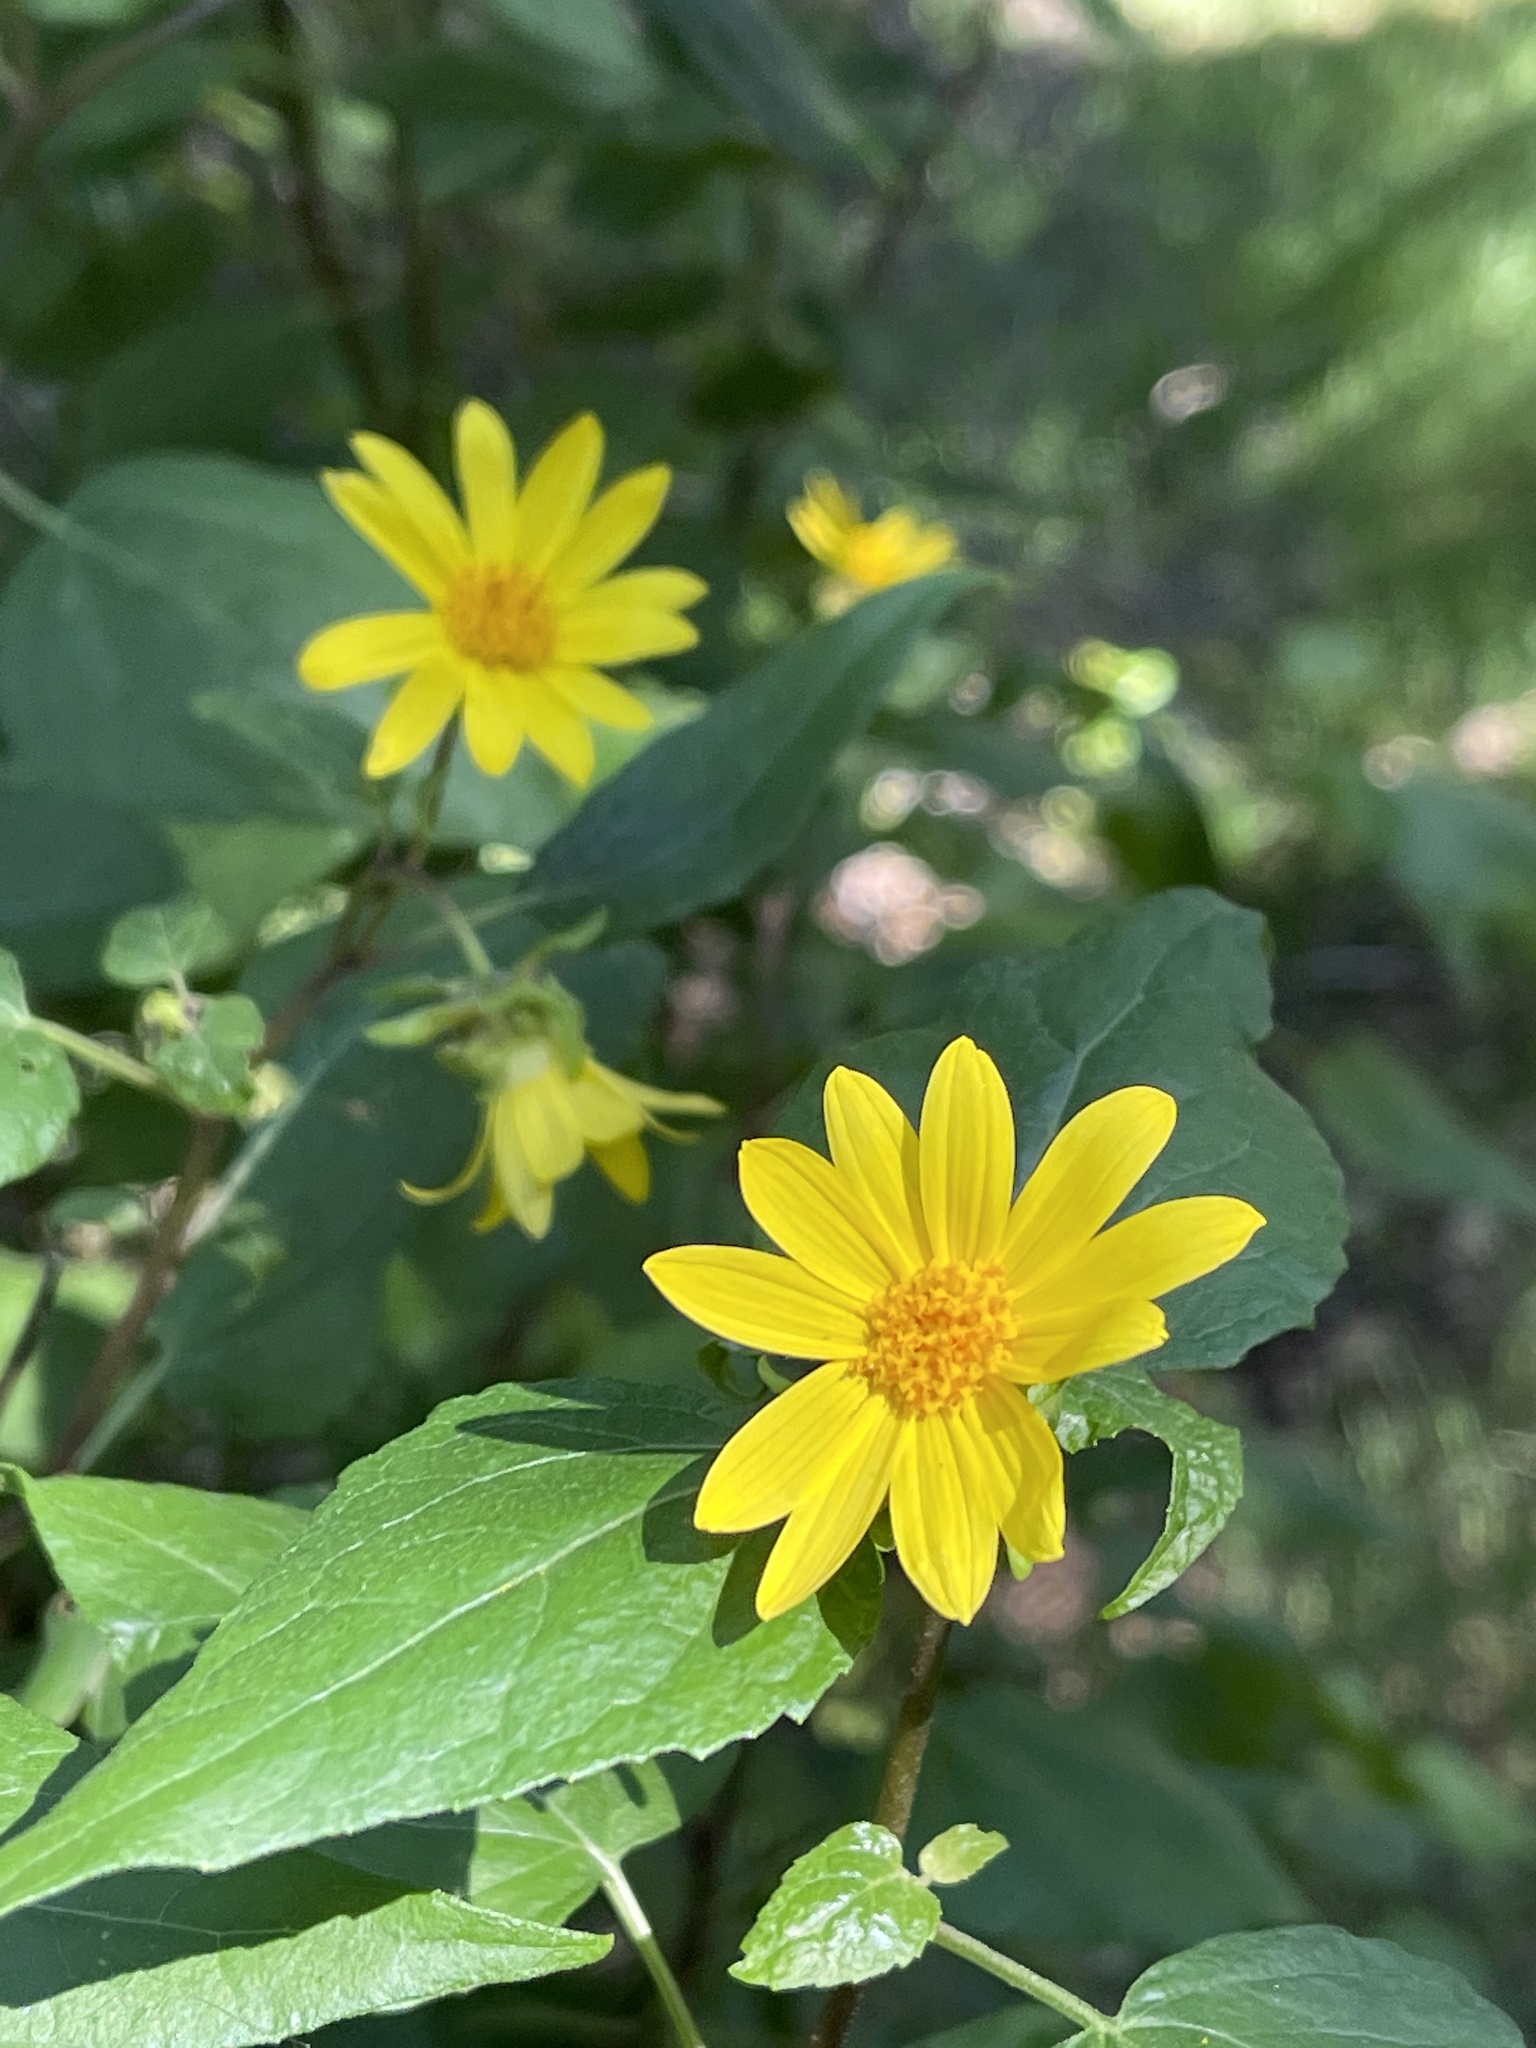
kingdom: Plantae
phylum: Tracheophyta
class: Magnoliopsida
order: Asterales
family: Asteraceae
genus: Venegasia
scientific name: Venegasia carpesioides
